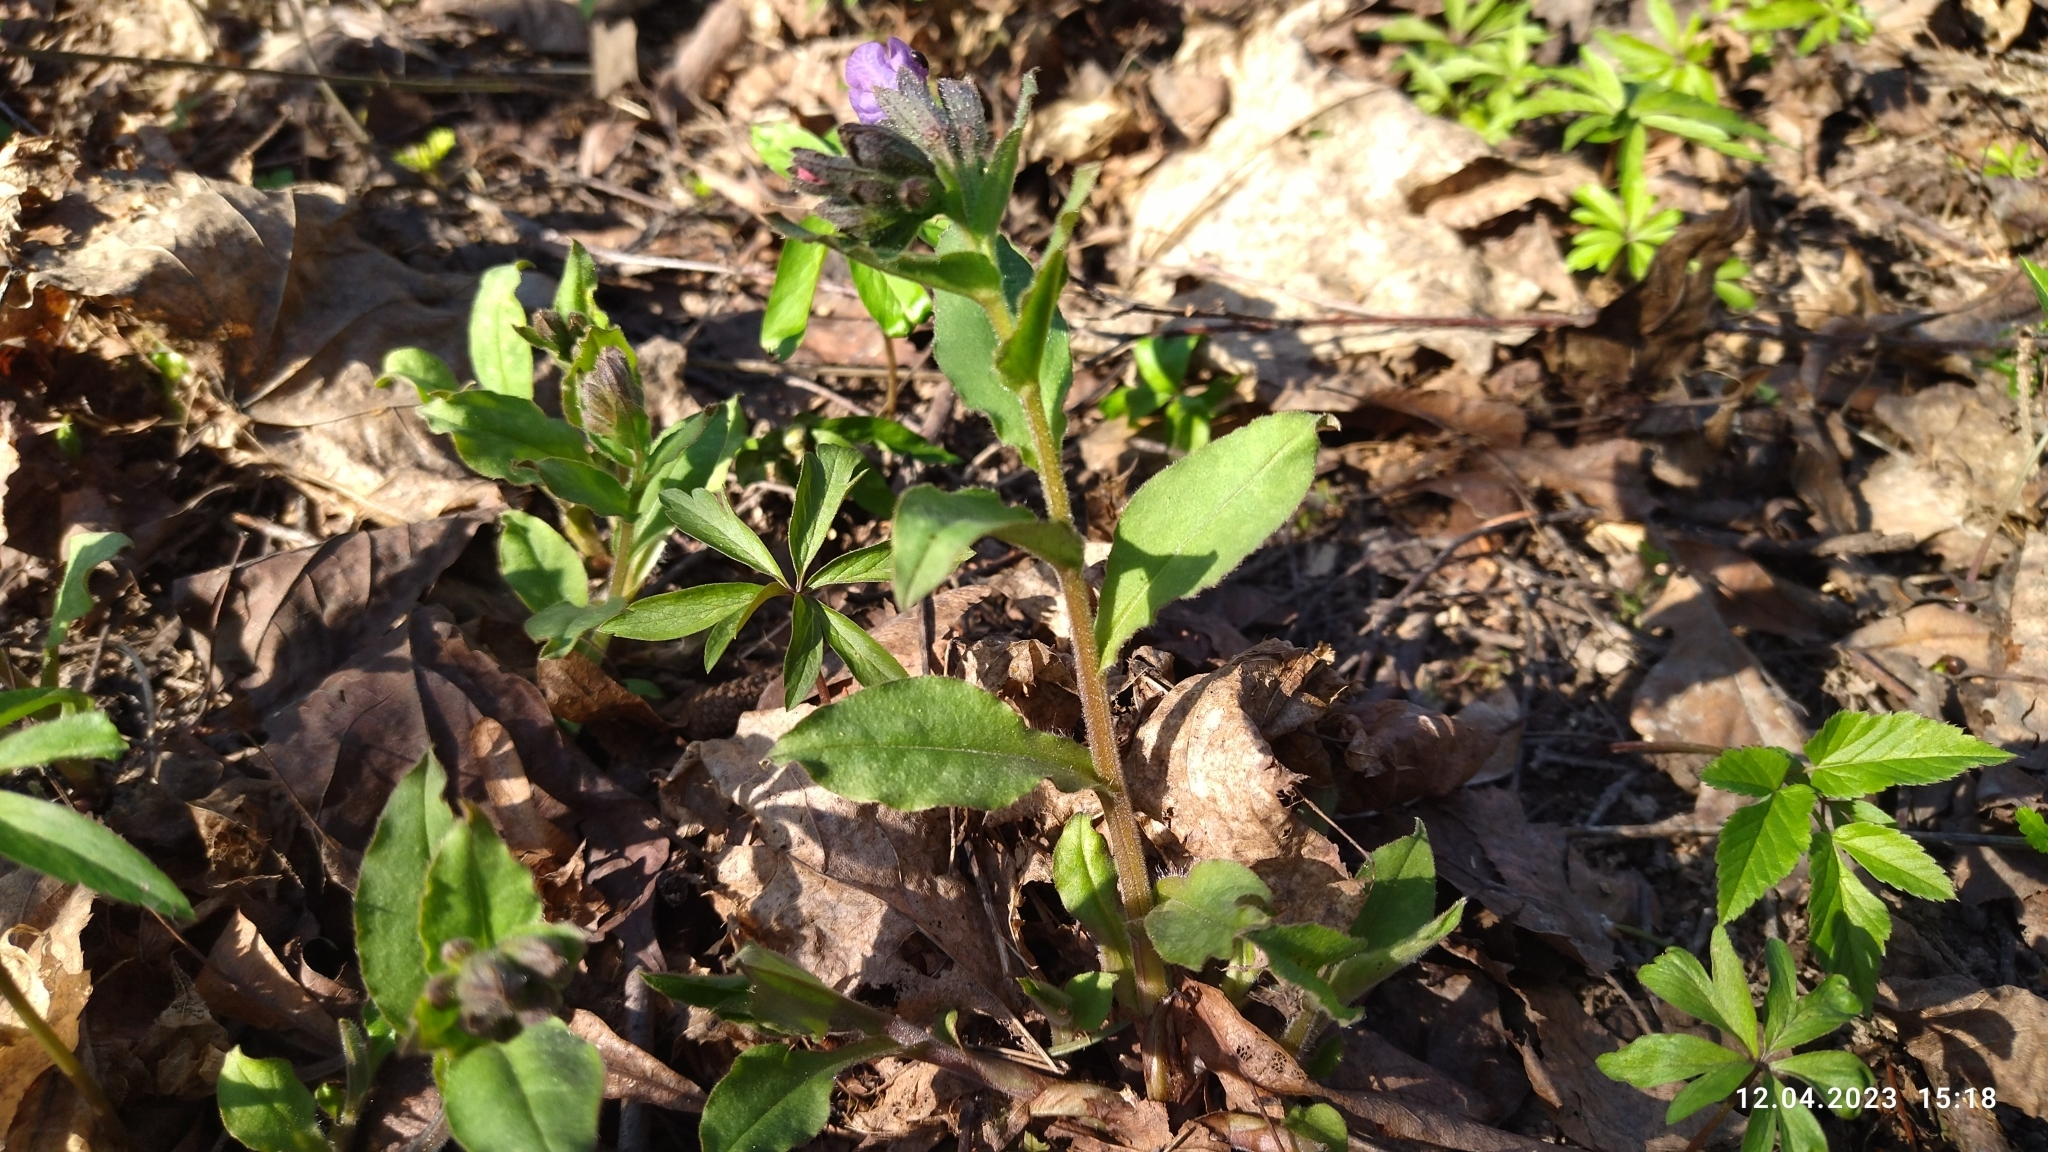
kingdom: Plantae
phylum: Tracheophyta
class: Magnoliopsida
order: Boraginales
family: Boraginaceae
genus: Pulmonaria
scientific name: Pulmonaria obscura
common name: Suffolk lungwort
